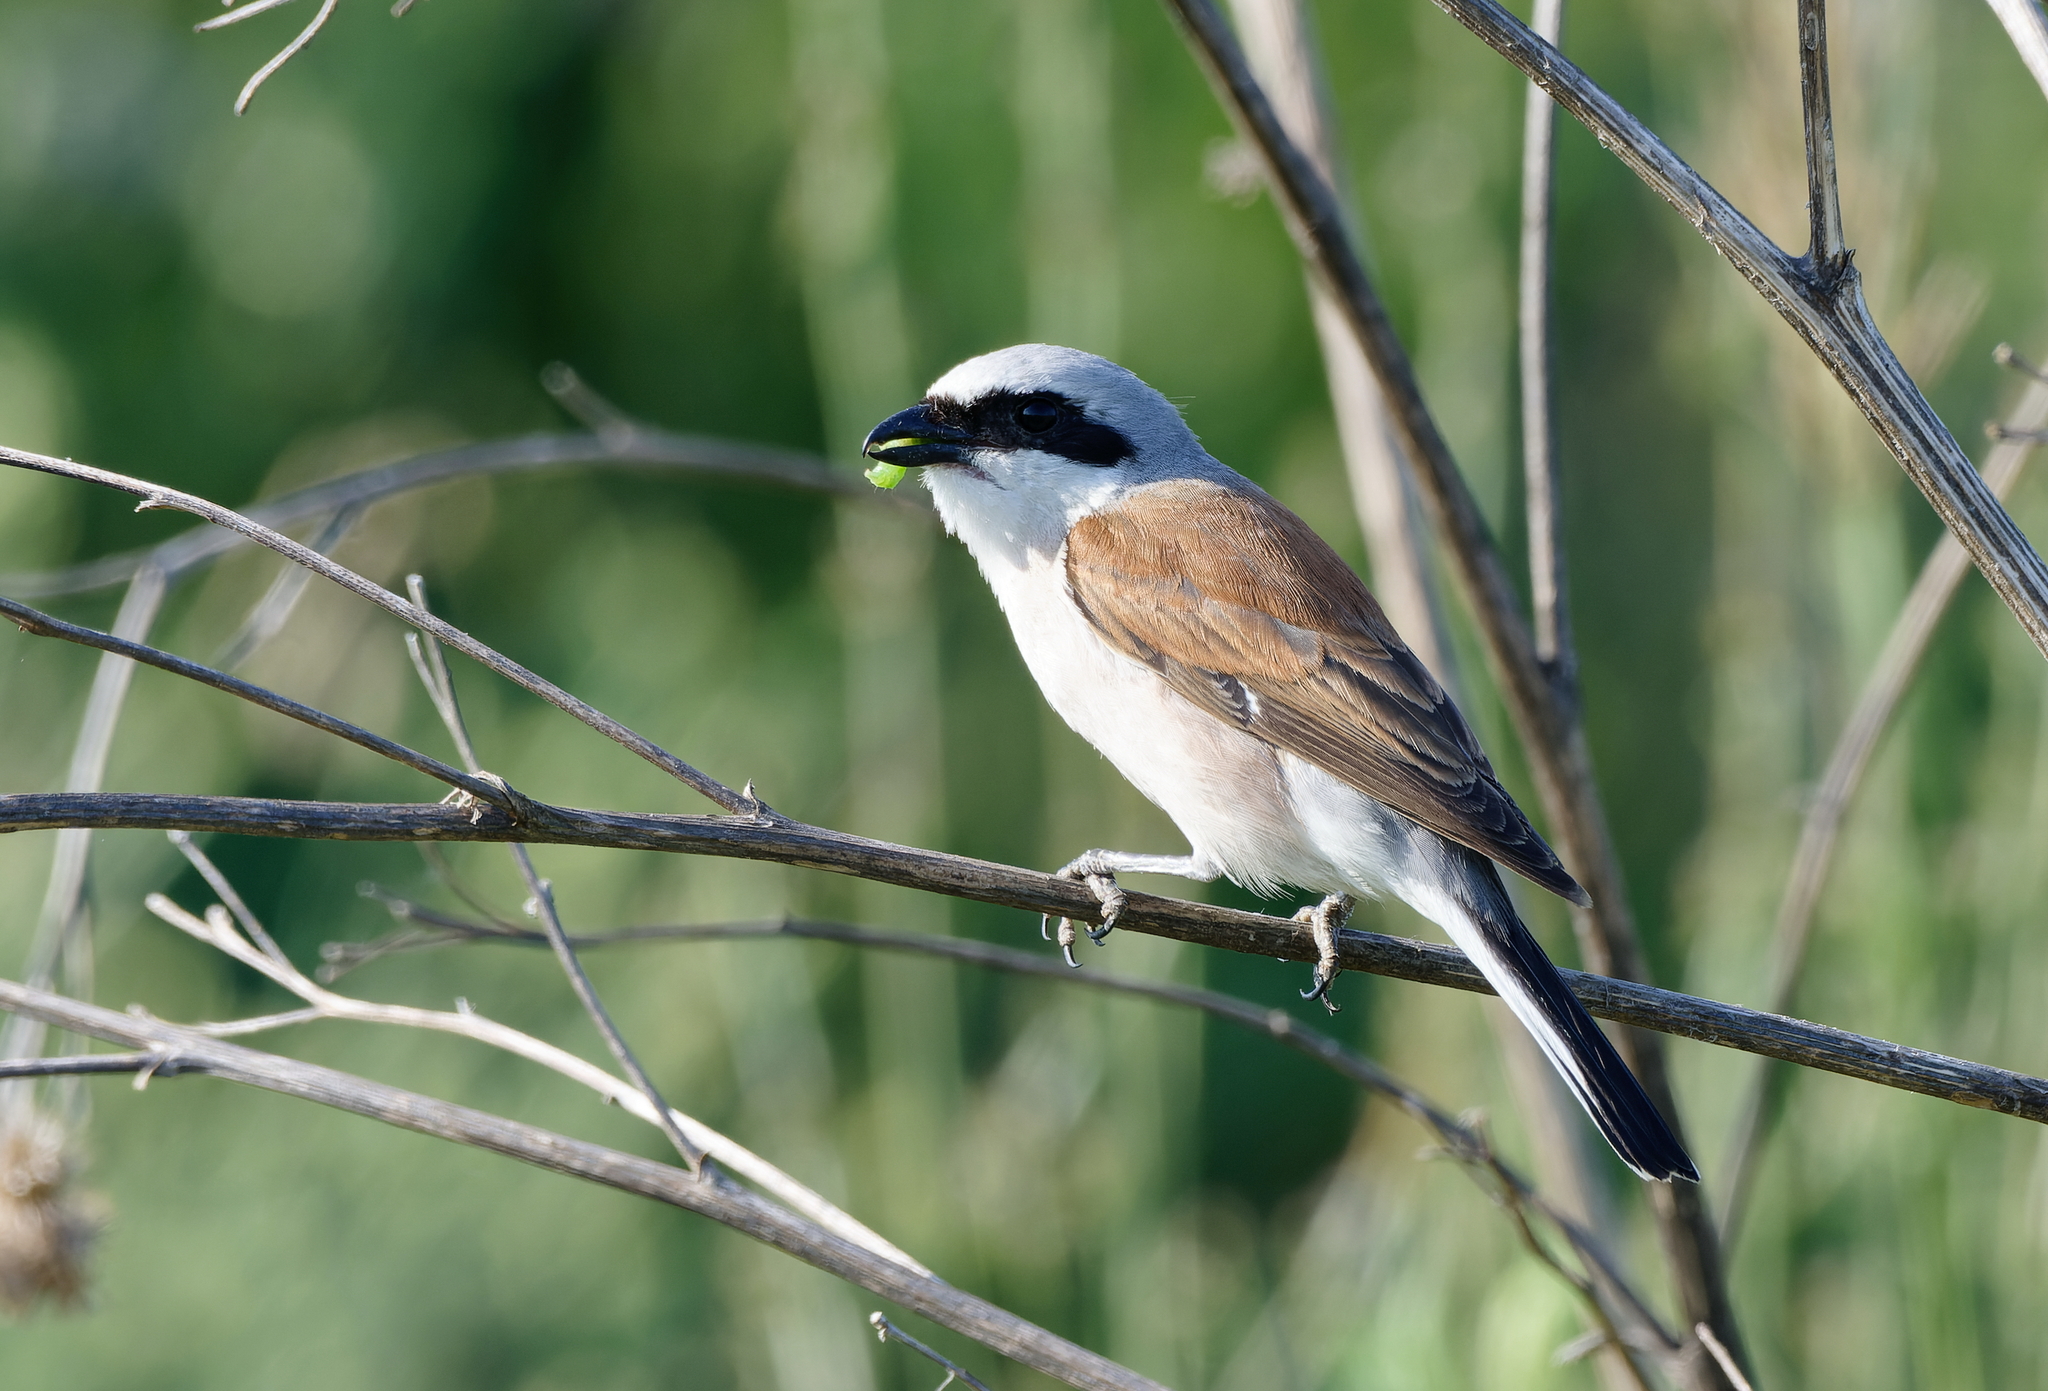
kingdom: Animalia
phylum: Chordata
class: Aves
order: Passeriformes
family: Laniidae
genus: Lanius
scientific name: Lanius collurio
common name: Red-backed shrike
